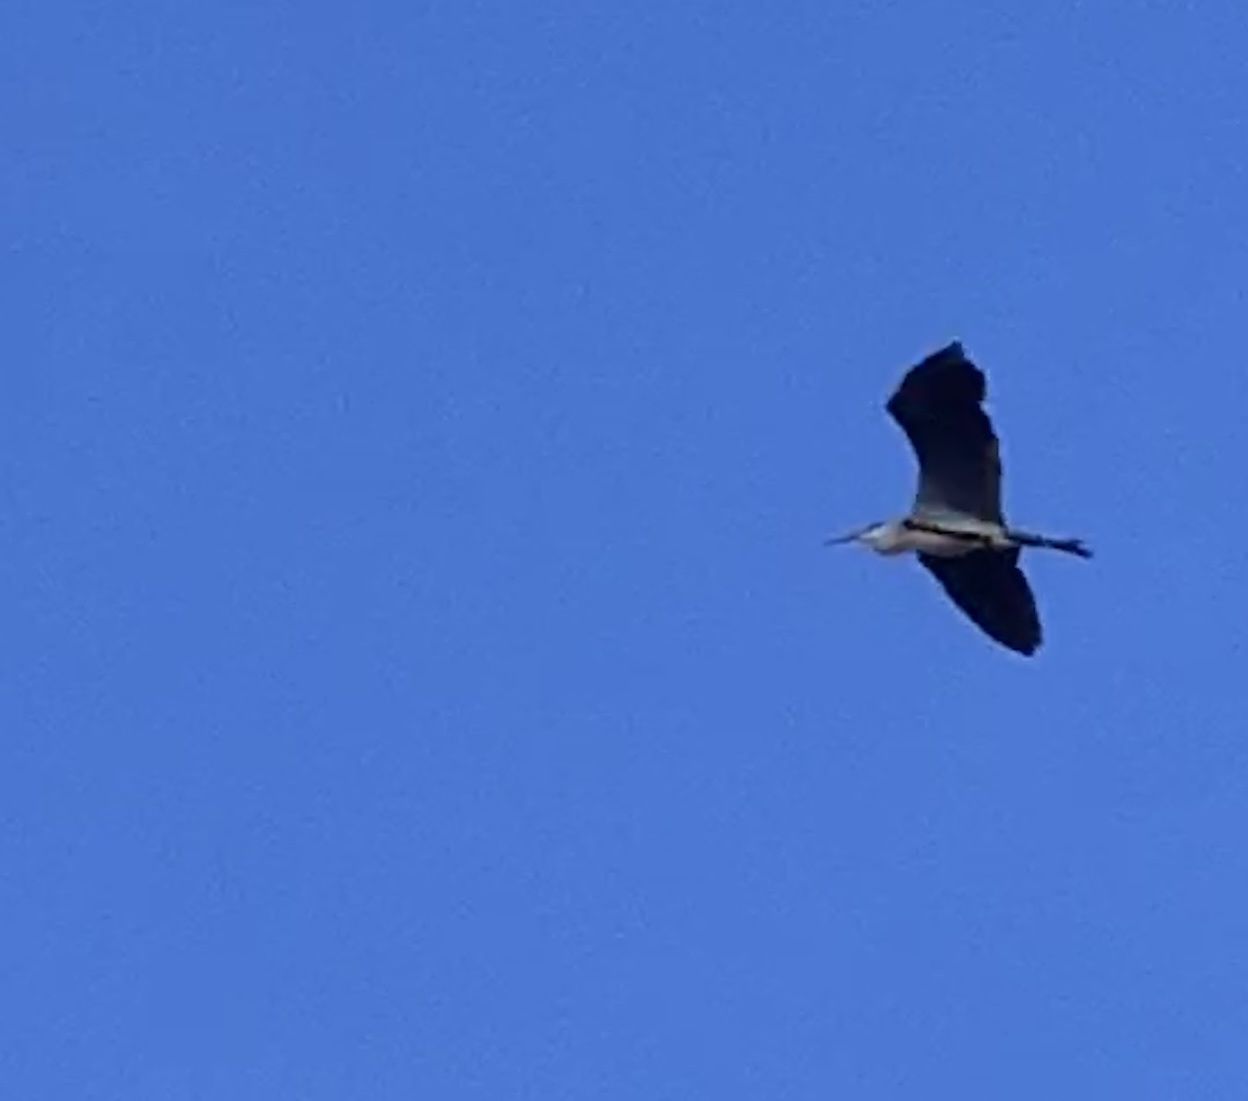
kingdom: Animalia
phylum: Chordata
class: Aves
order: Pelecaniformes
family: Ardeidae
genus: Ardea
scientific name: Ardea cinerea
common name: Grey heron
